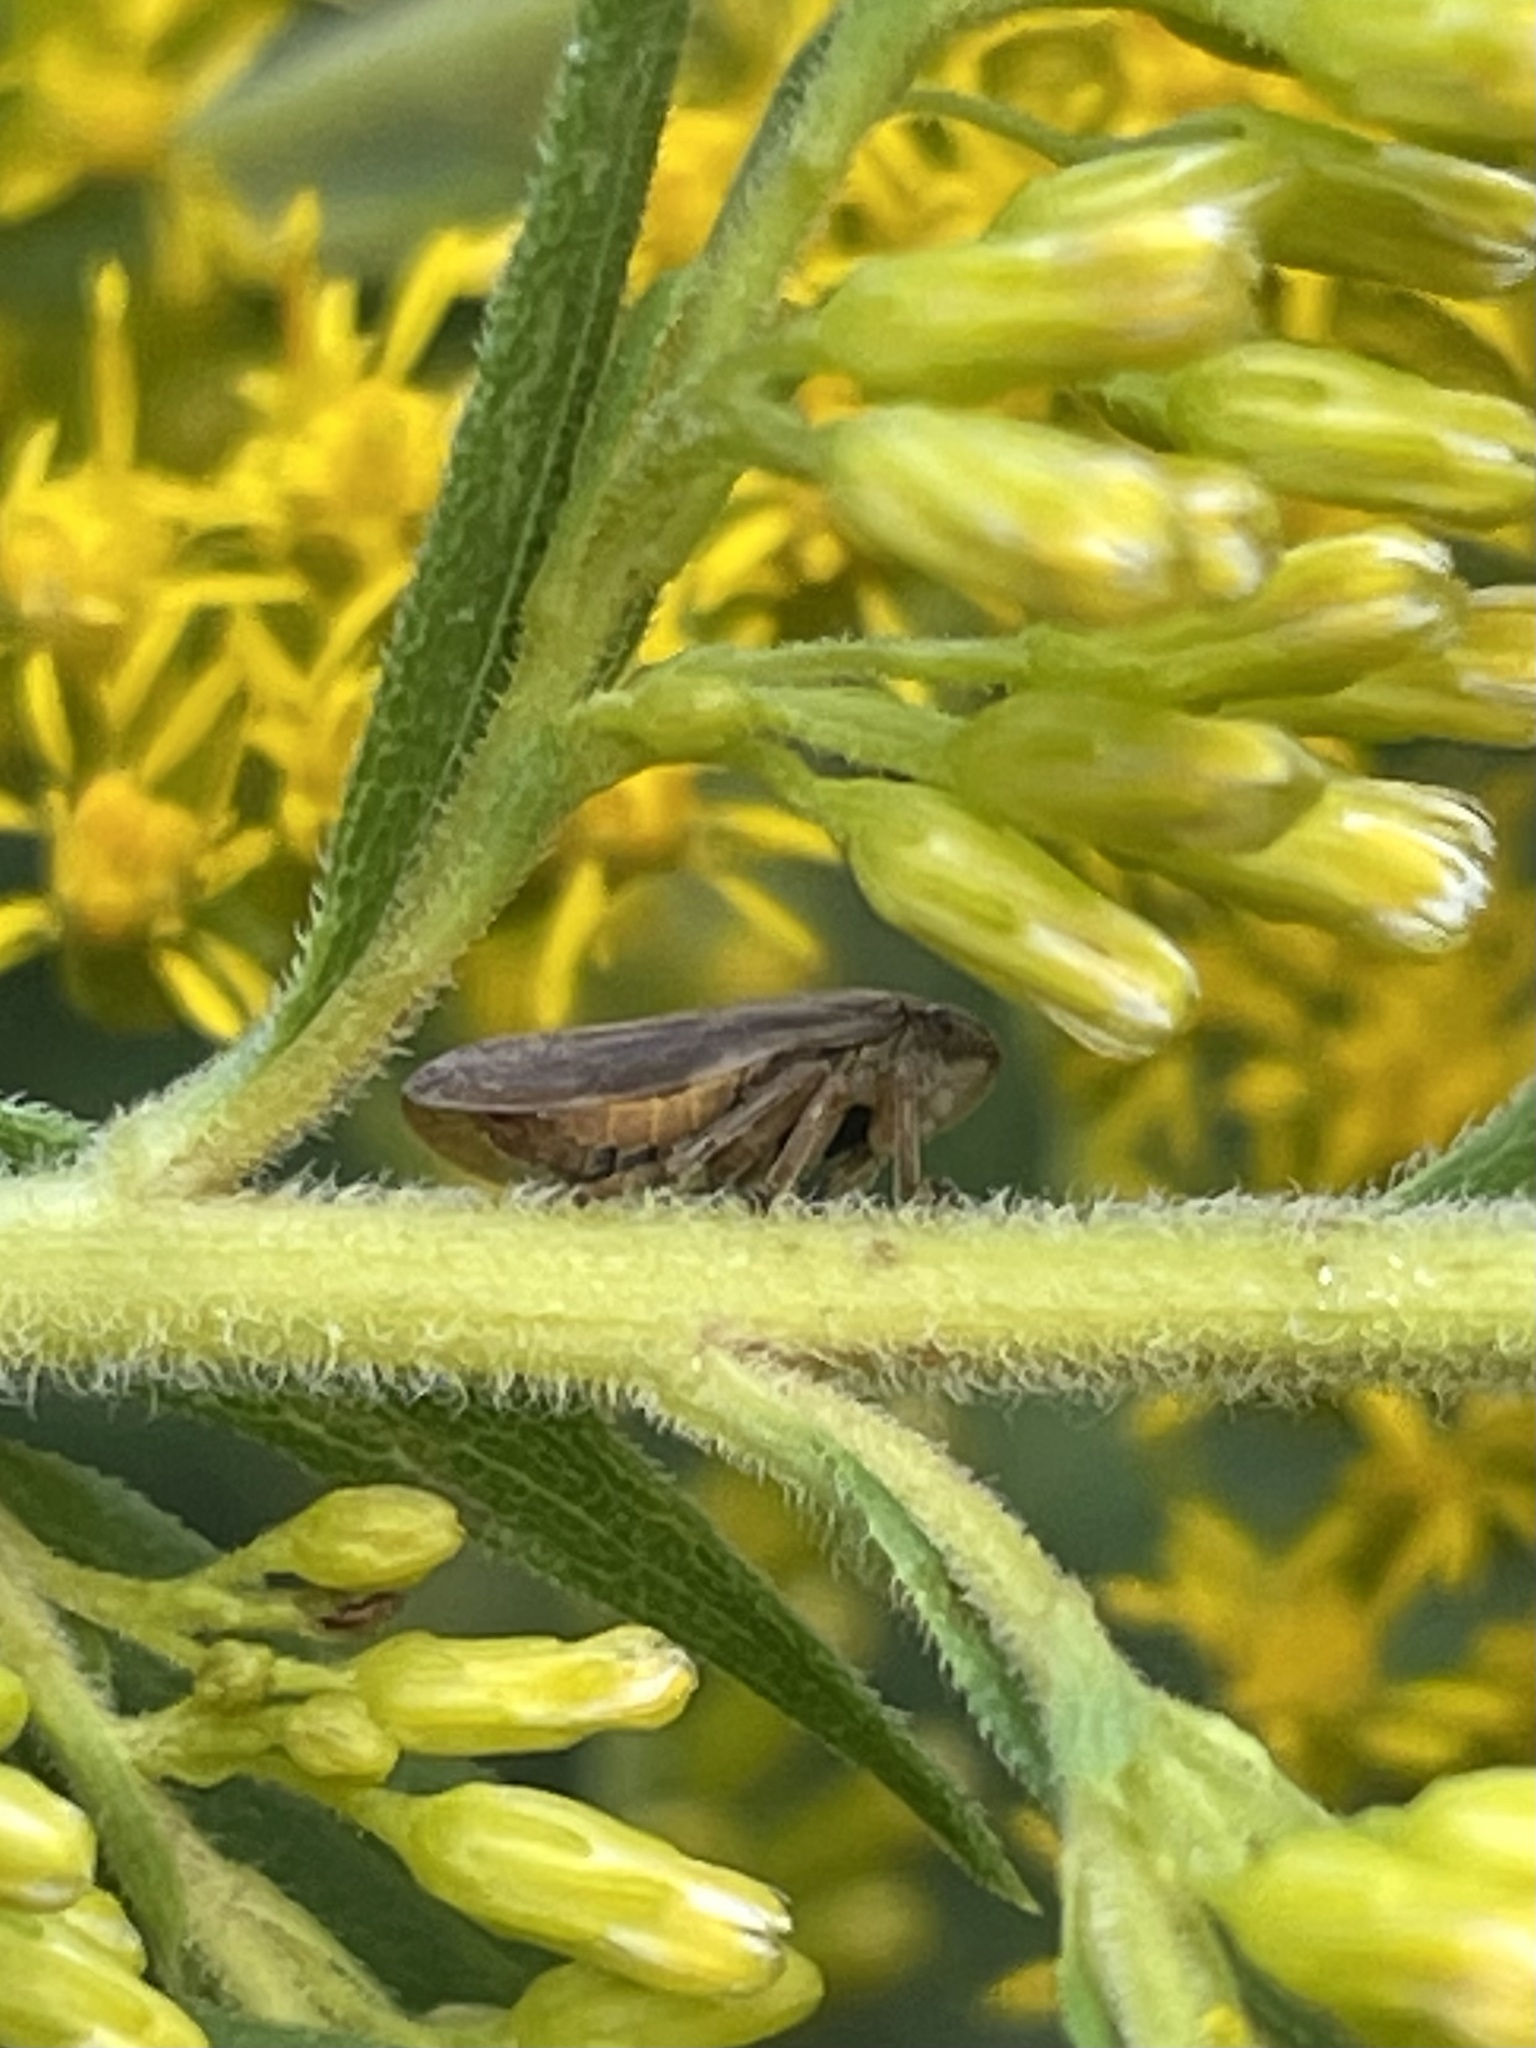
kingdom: Animalia
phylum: Arthropoda
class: Insecta
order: Hemiptera
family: Aphrophoridae
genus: Philaenus
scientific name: Philaenus spumarius
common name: Meadow spittlebug
